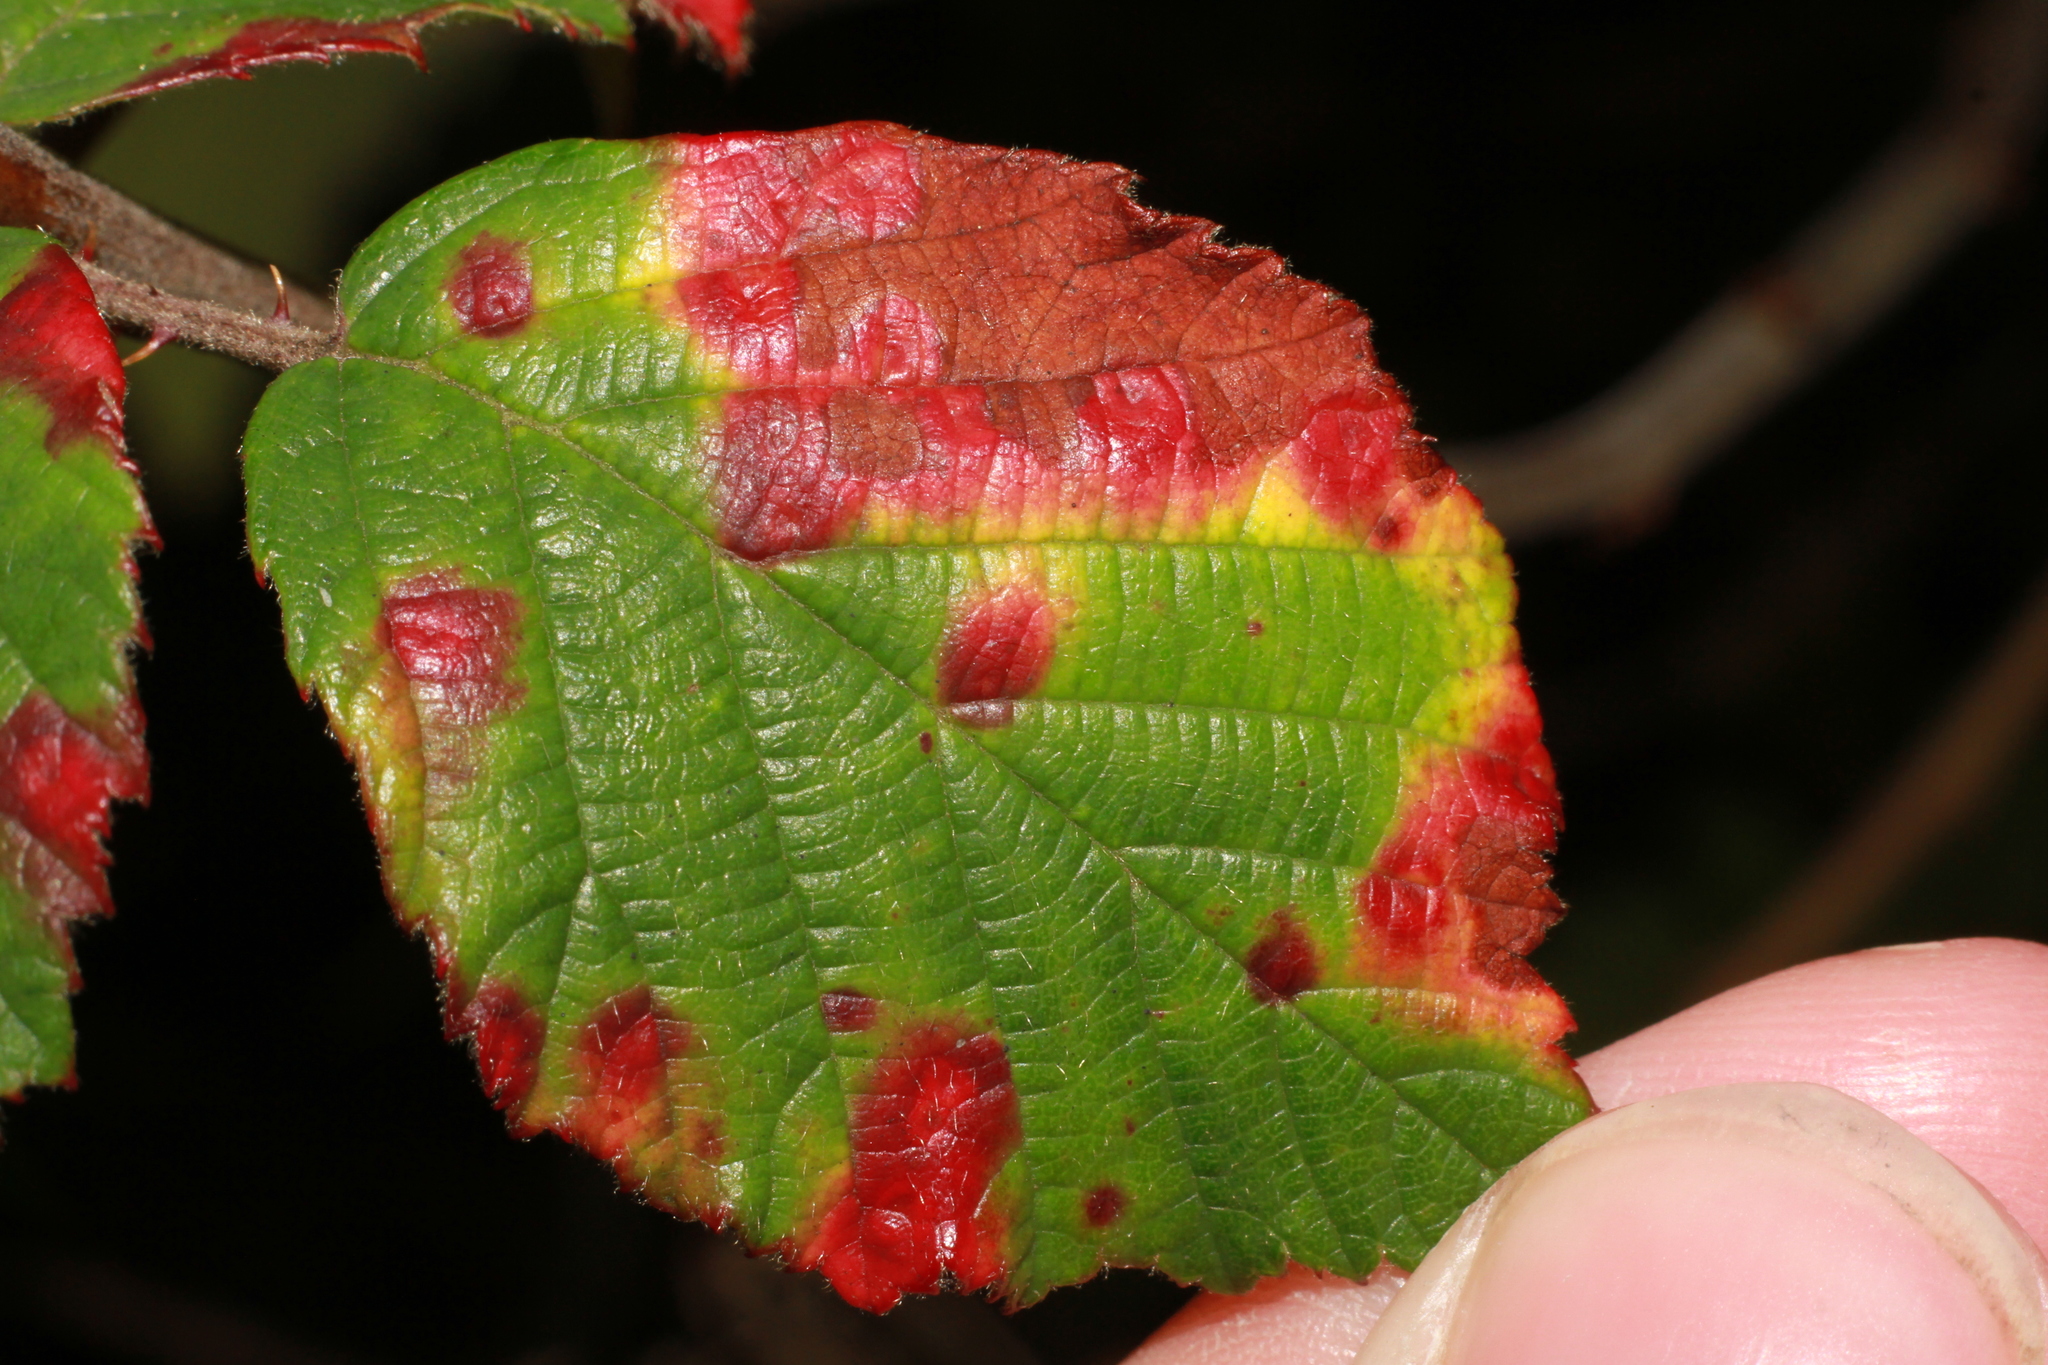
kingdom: Fungi
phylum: Basidiomycota
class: Pucciniomycetes
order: Pucciniales
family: Phragmidiaceae
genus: Phragmidium
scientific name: Phragmidium violaceum
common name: Violet bramble rust
